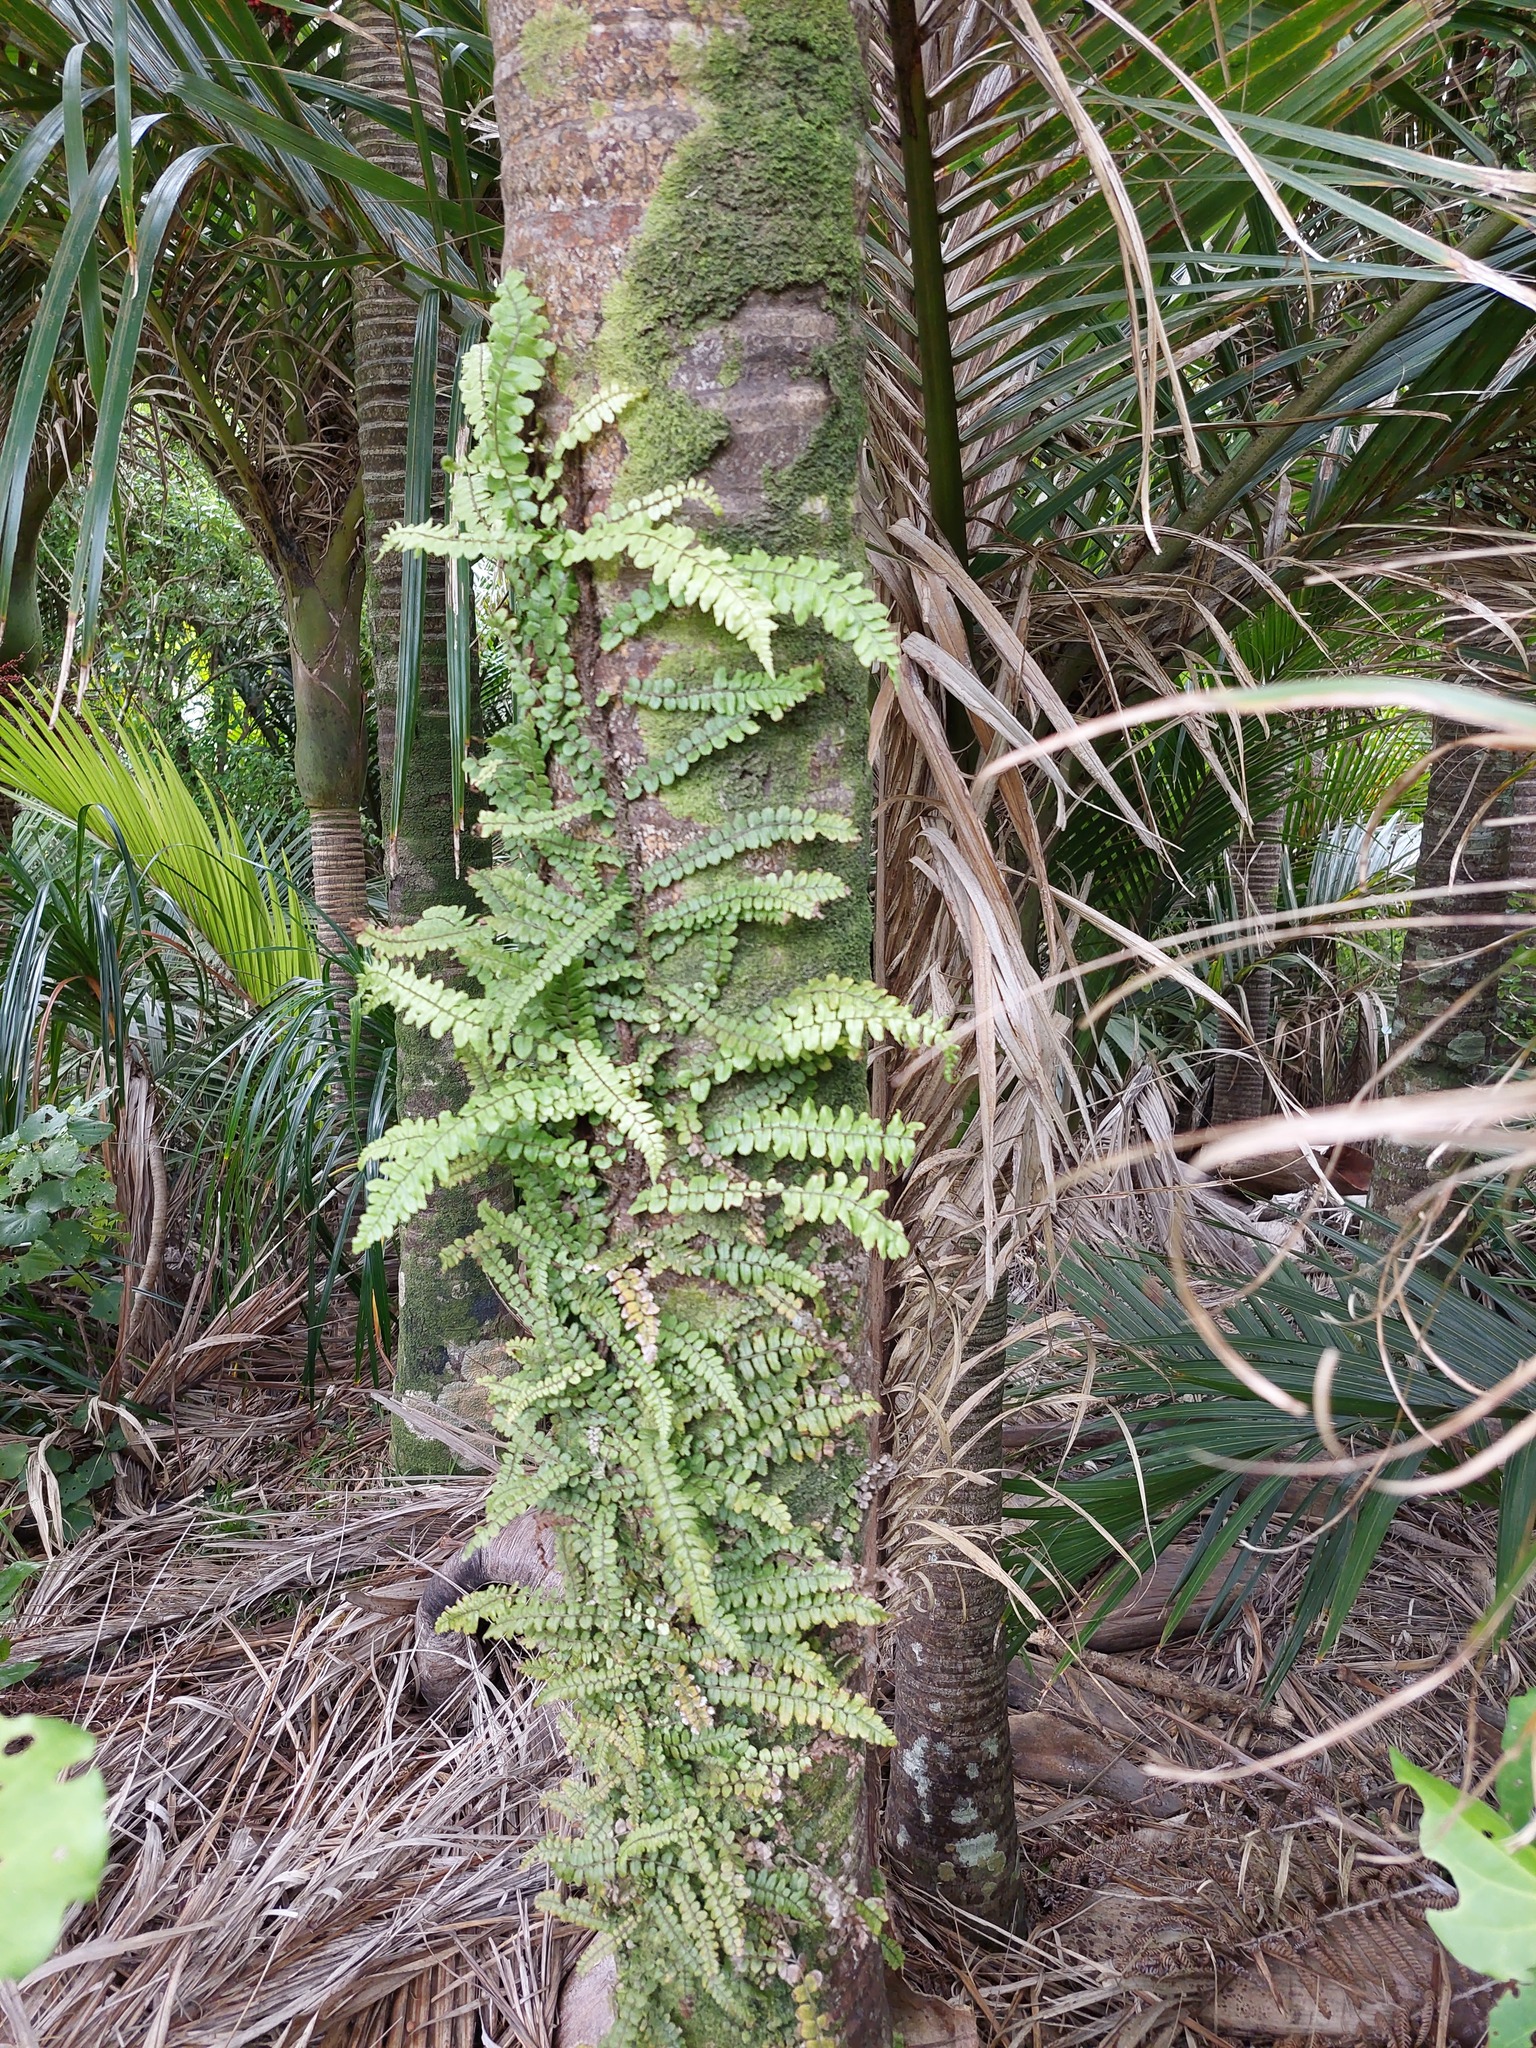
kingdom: Plantae
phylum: Tracheophyta
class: Polypodiopsida
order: Polypodiales
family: Blechnaceae
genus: Icarus
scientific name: Icarus filiformis
